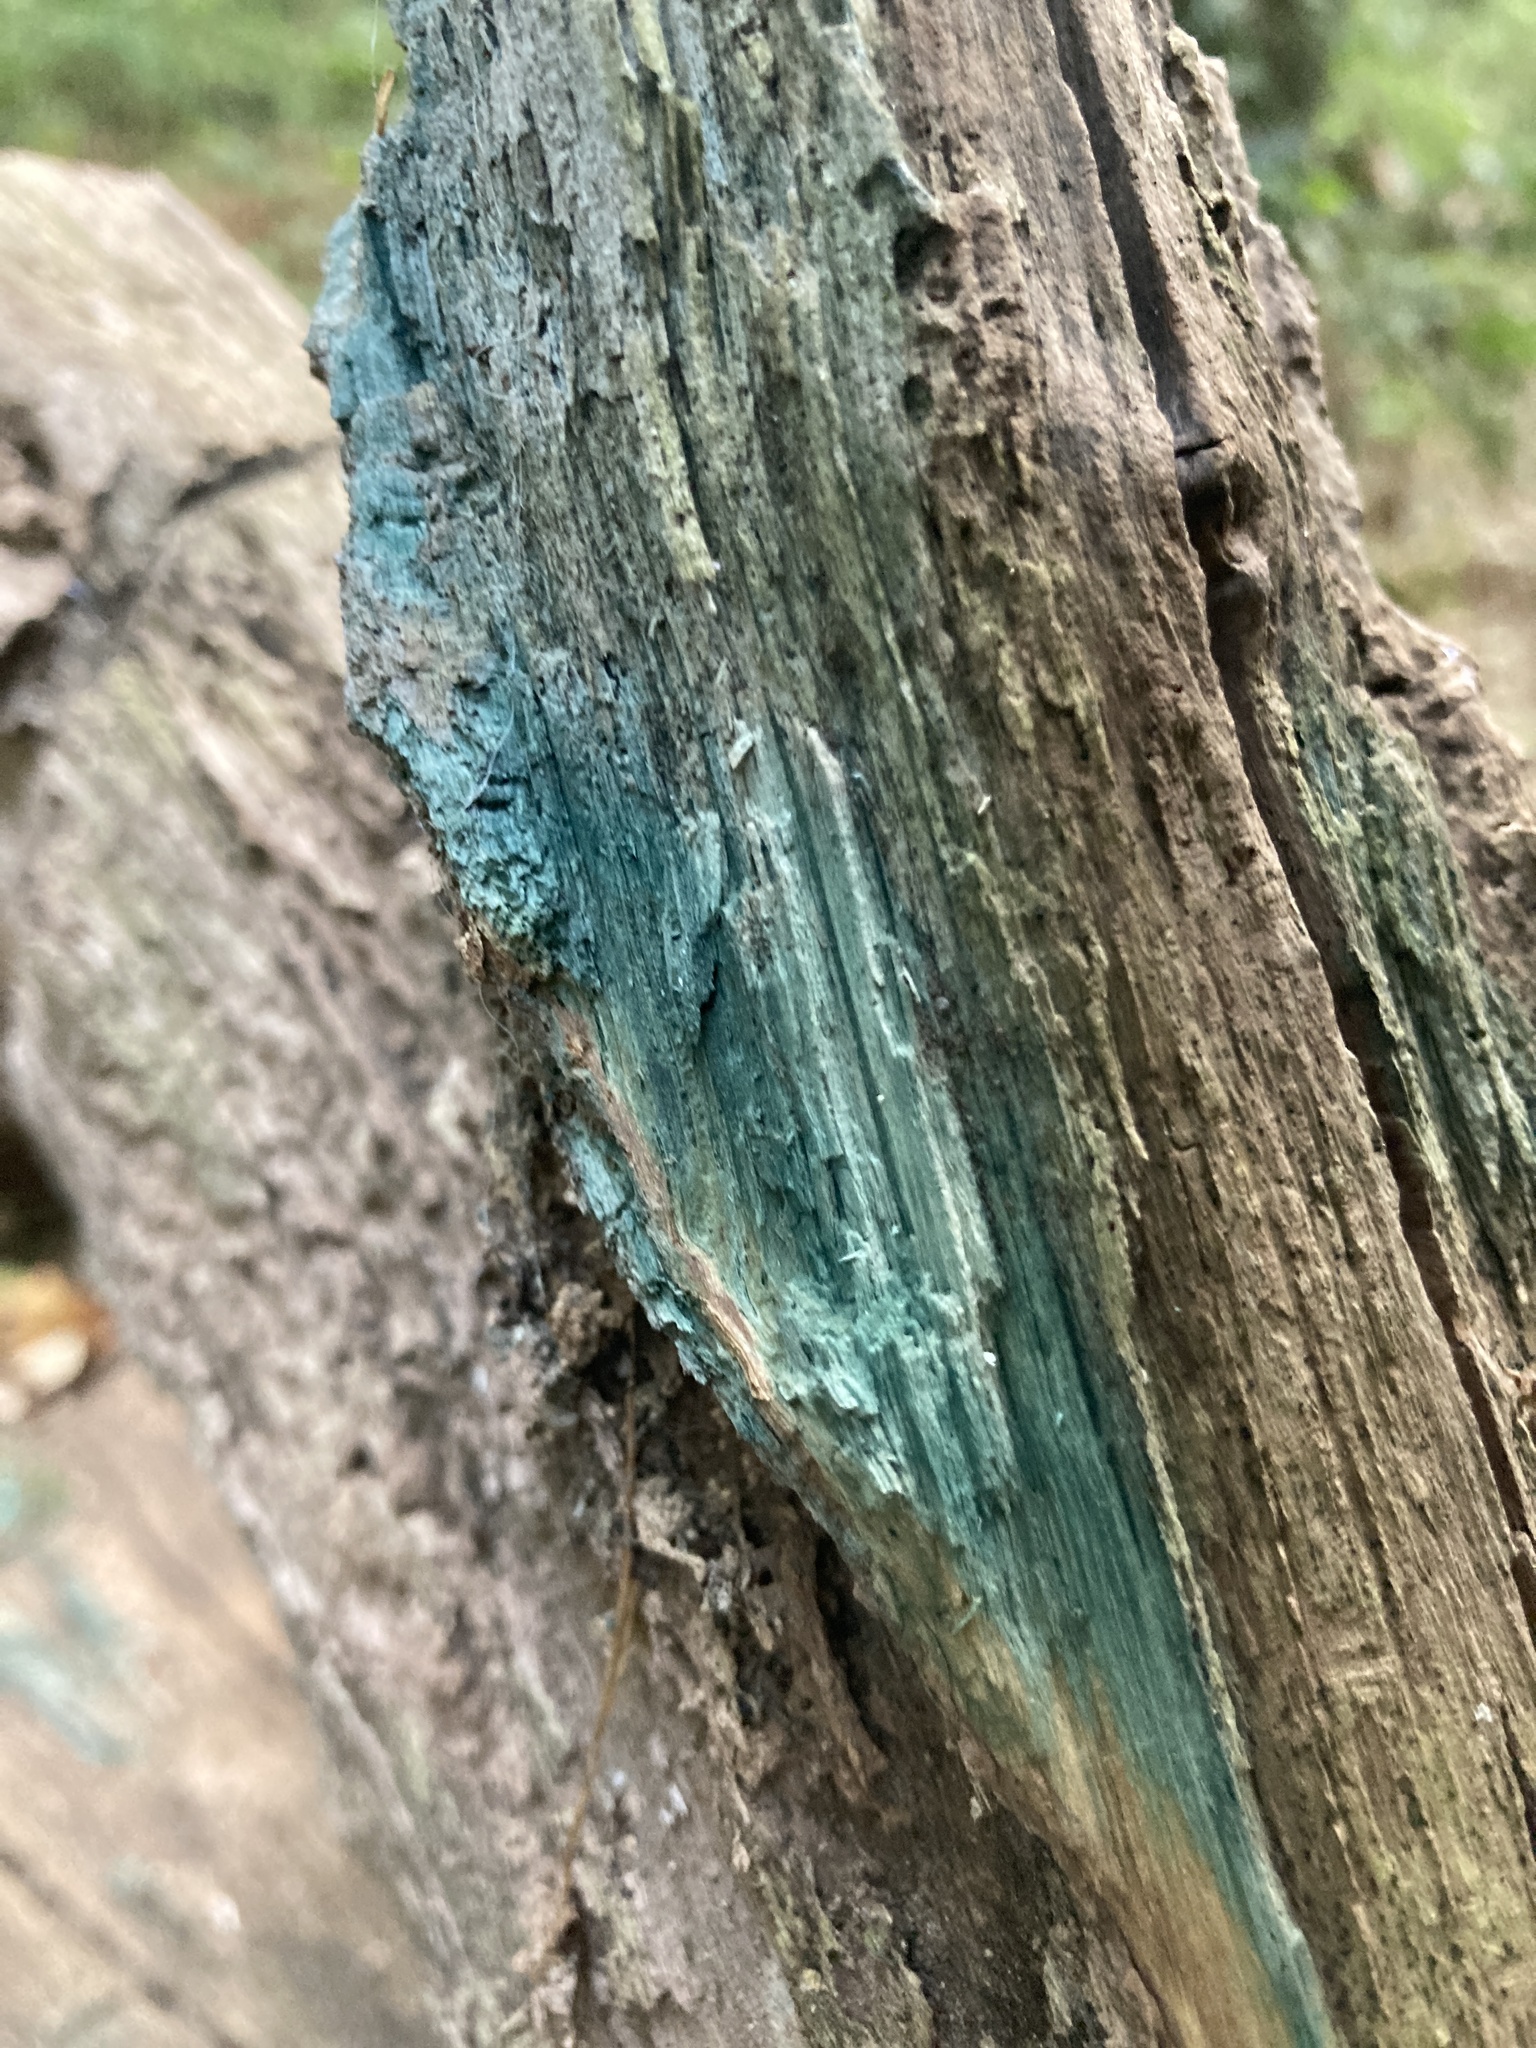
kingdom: Fungi
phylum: Ascomycota
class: Leotiomycetes
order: Helotiales
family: Chlorociboriaceae
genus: Chlorociboria
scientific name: Chlorociboria
